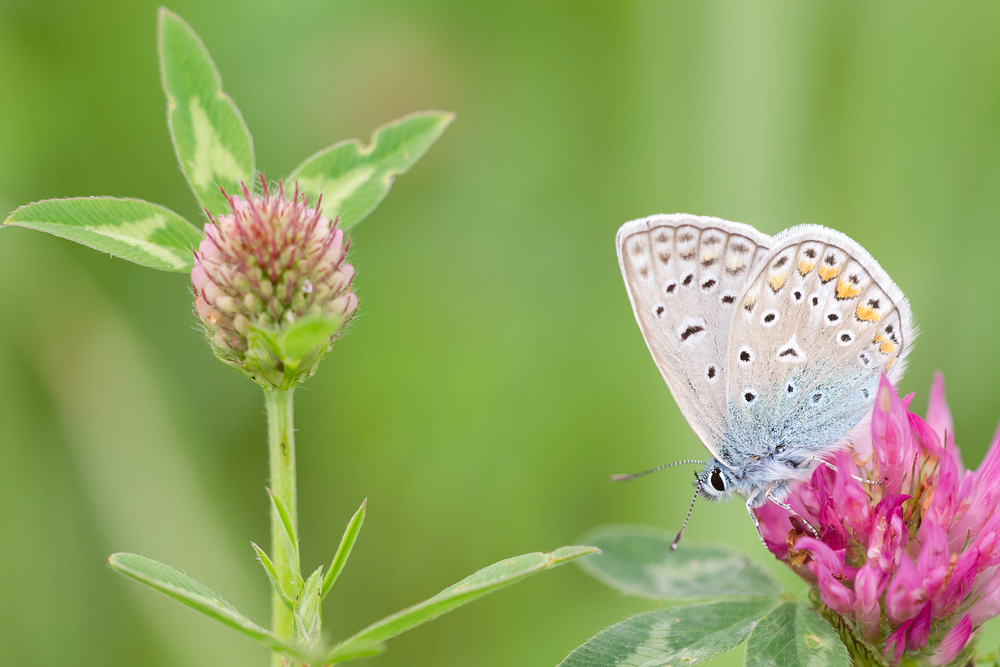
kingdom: Animalia
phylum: Arthropoda
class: Insecta
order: Lepidoptera
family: Lycaenidae
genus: Polyommatus
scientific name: Polyommatus icarus
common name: Common blue
